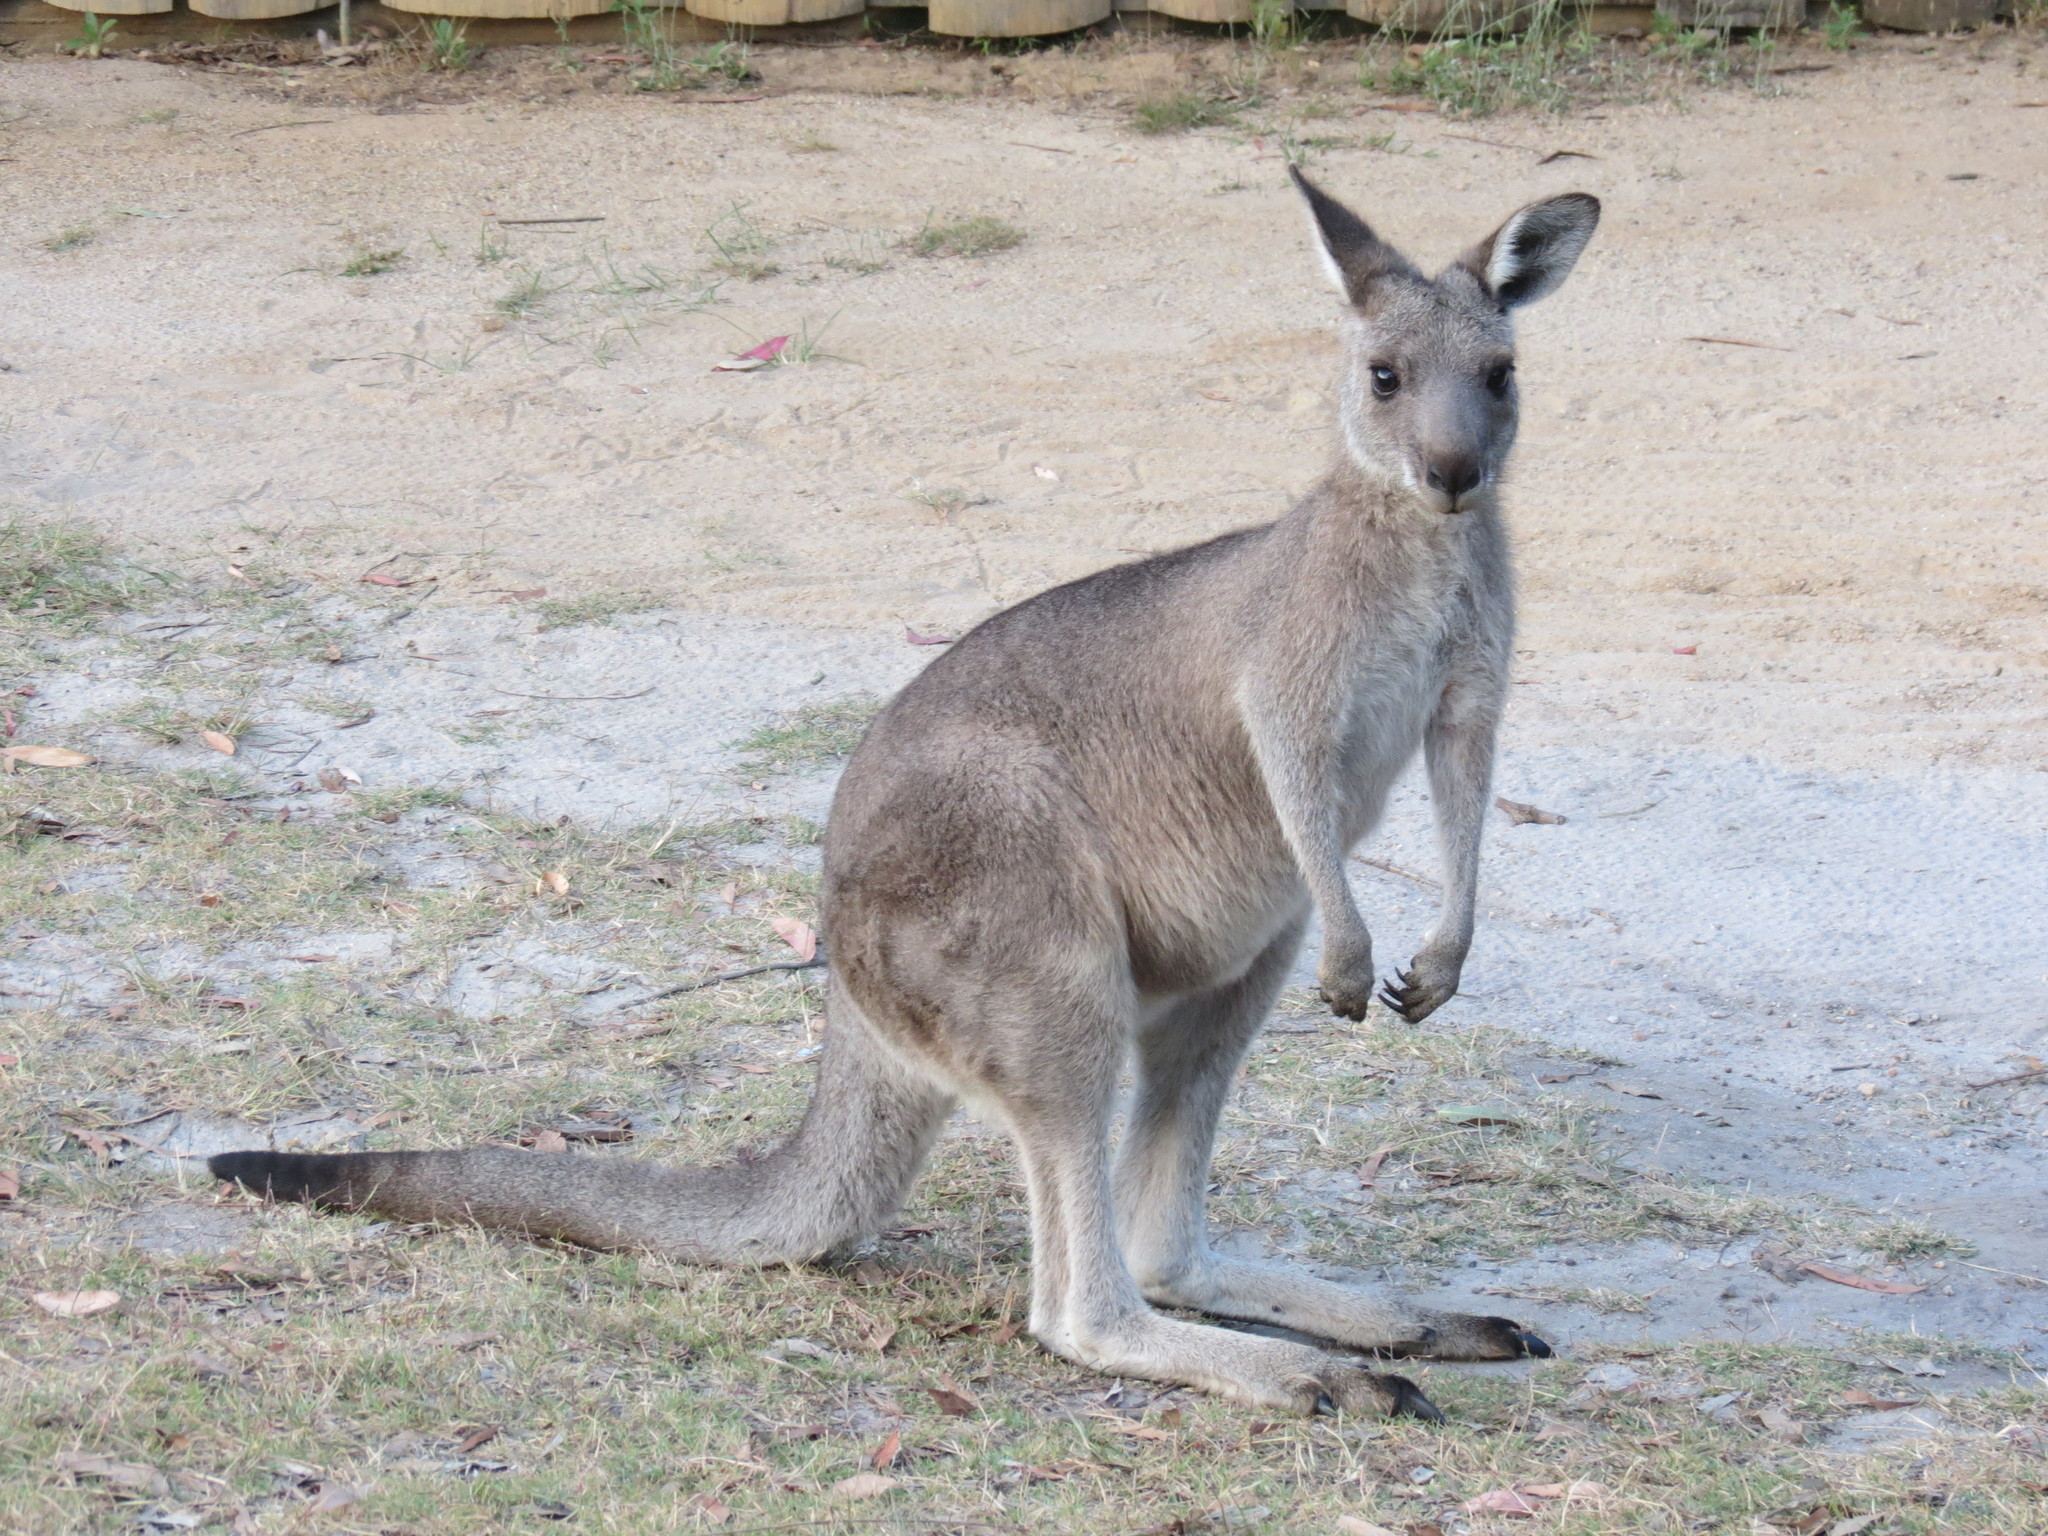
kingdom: Animalia
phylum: Chordata
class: Mammalia
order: Diprotodontia
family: Macropodidae
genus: Macropus
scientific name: Macropus giganteus
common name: Eastern grey kangaroo
